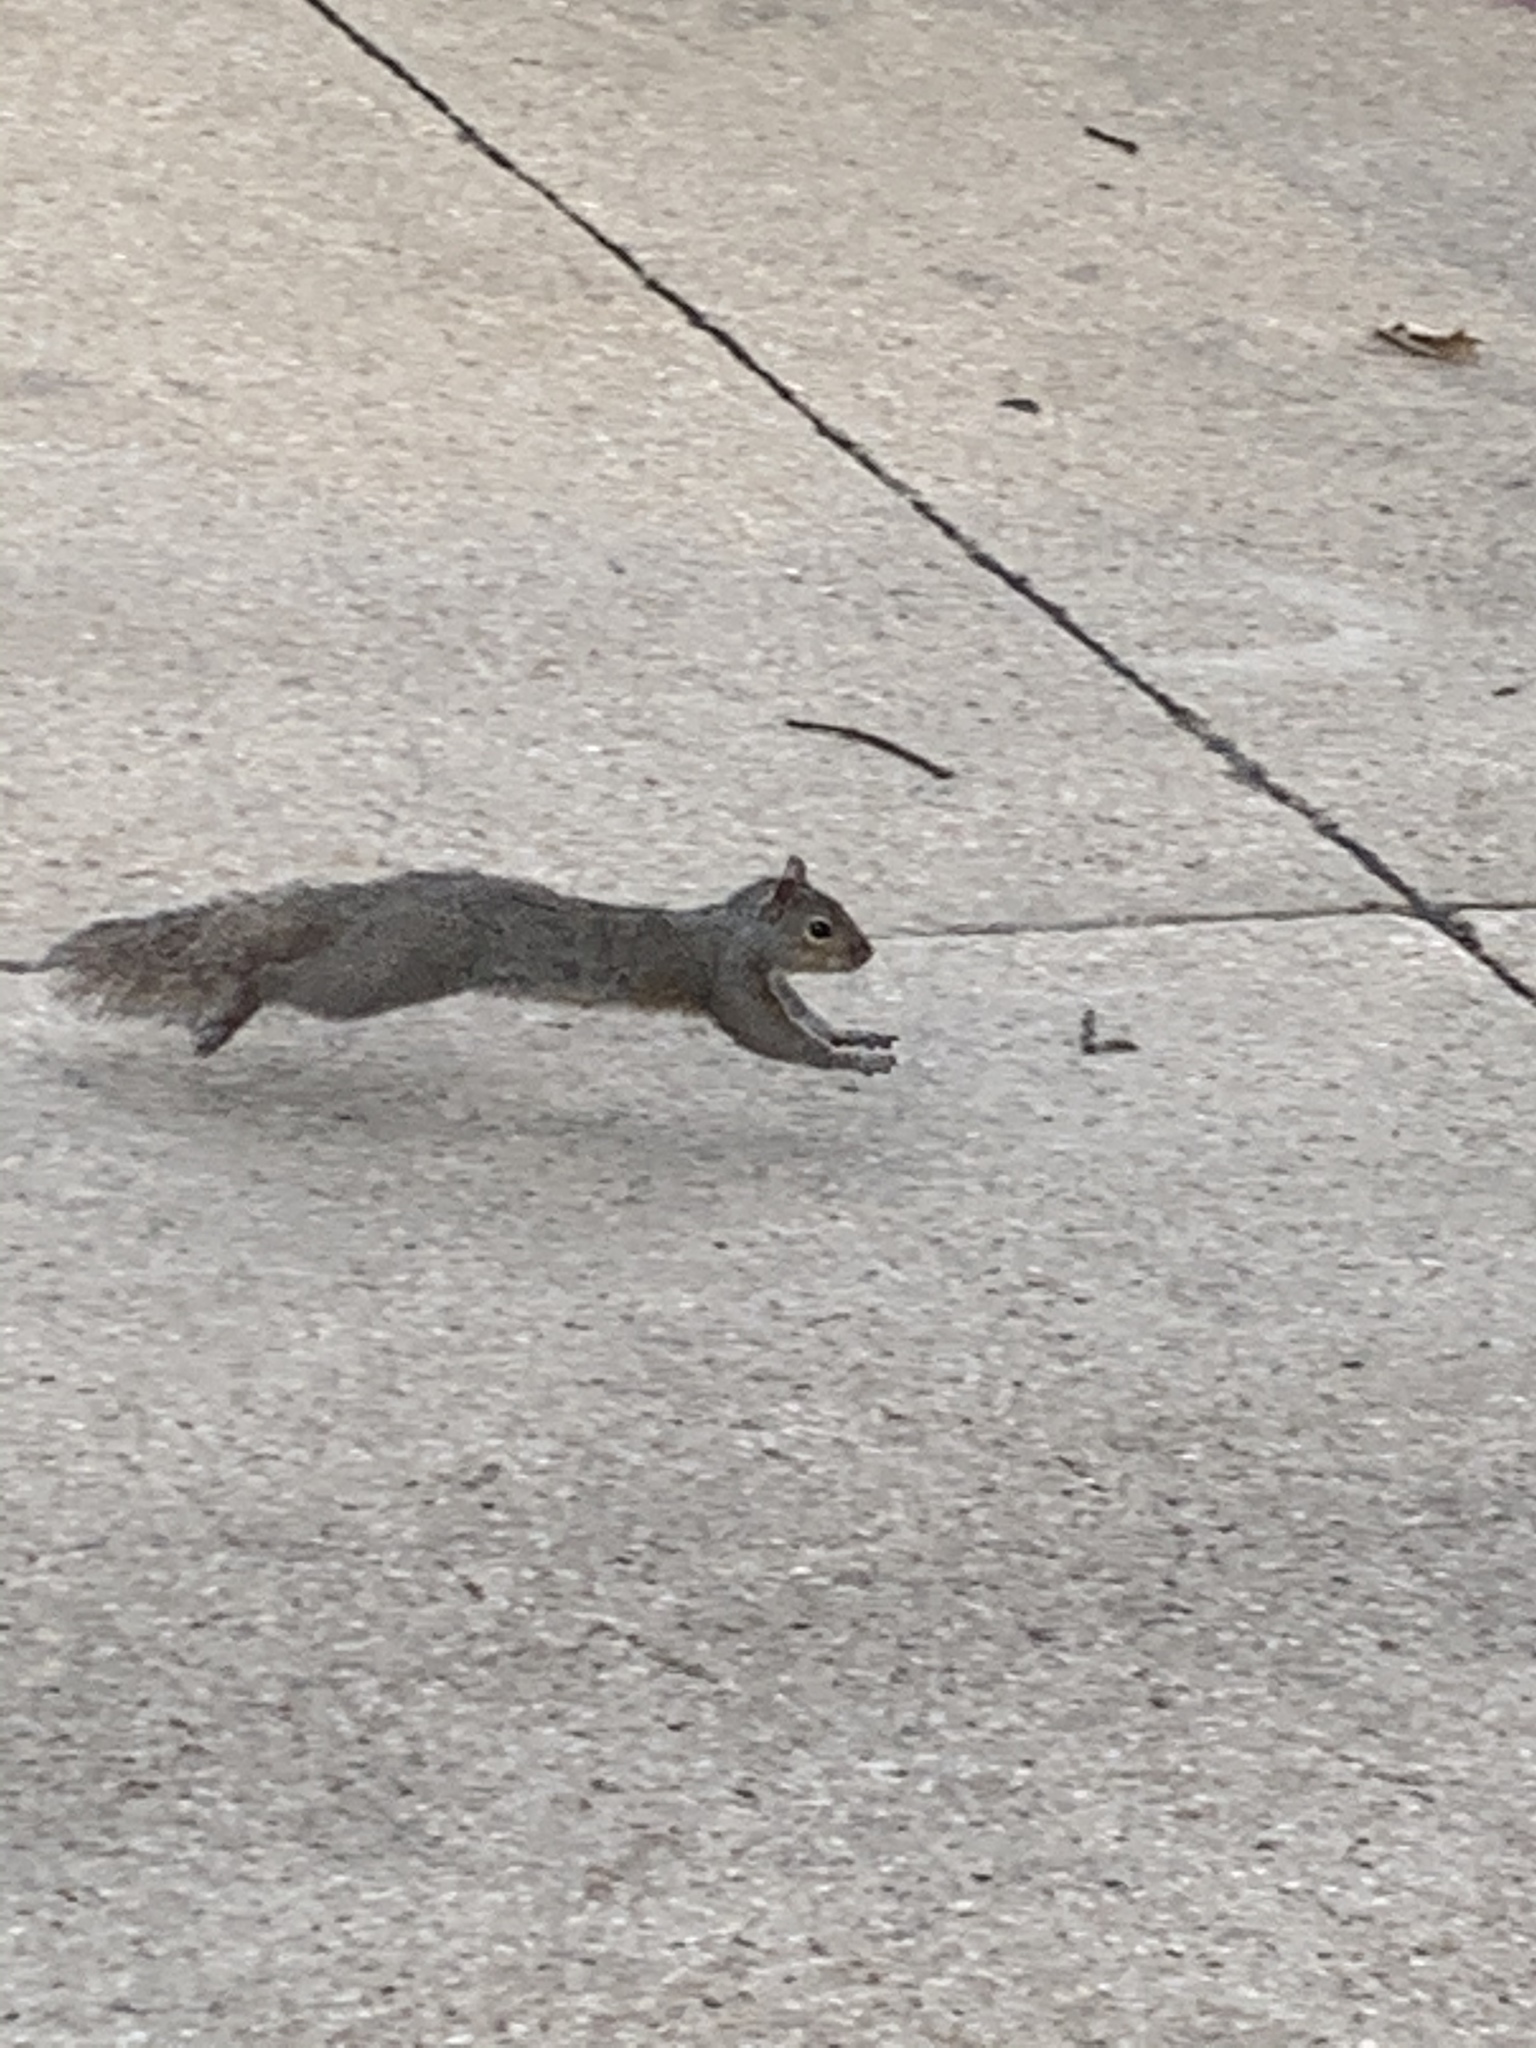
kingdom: Animalia
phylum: Chordata
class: Mammalia
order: Rodentia
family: Sciuridae
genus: Sciurus
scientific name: Sciurus carolinensis
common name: Eastern gray squirrel
